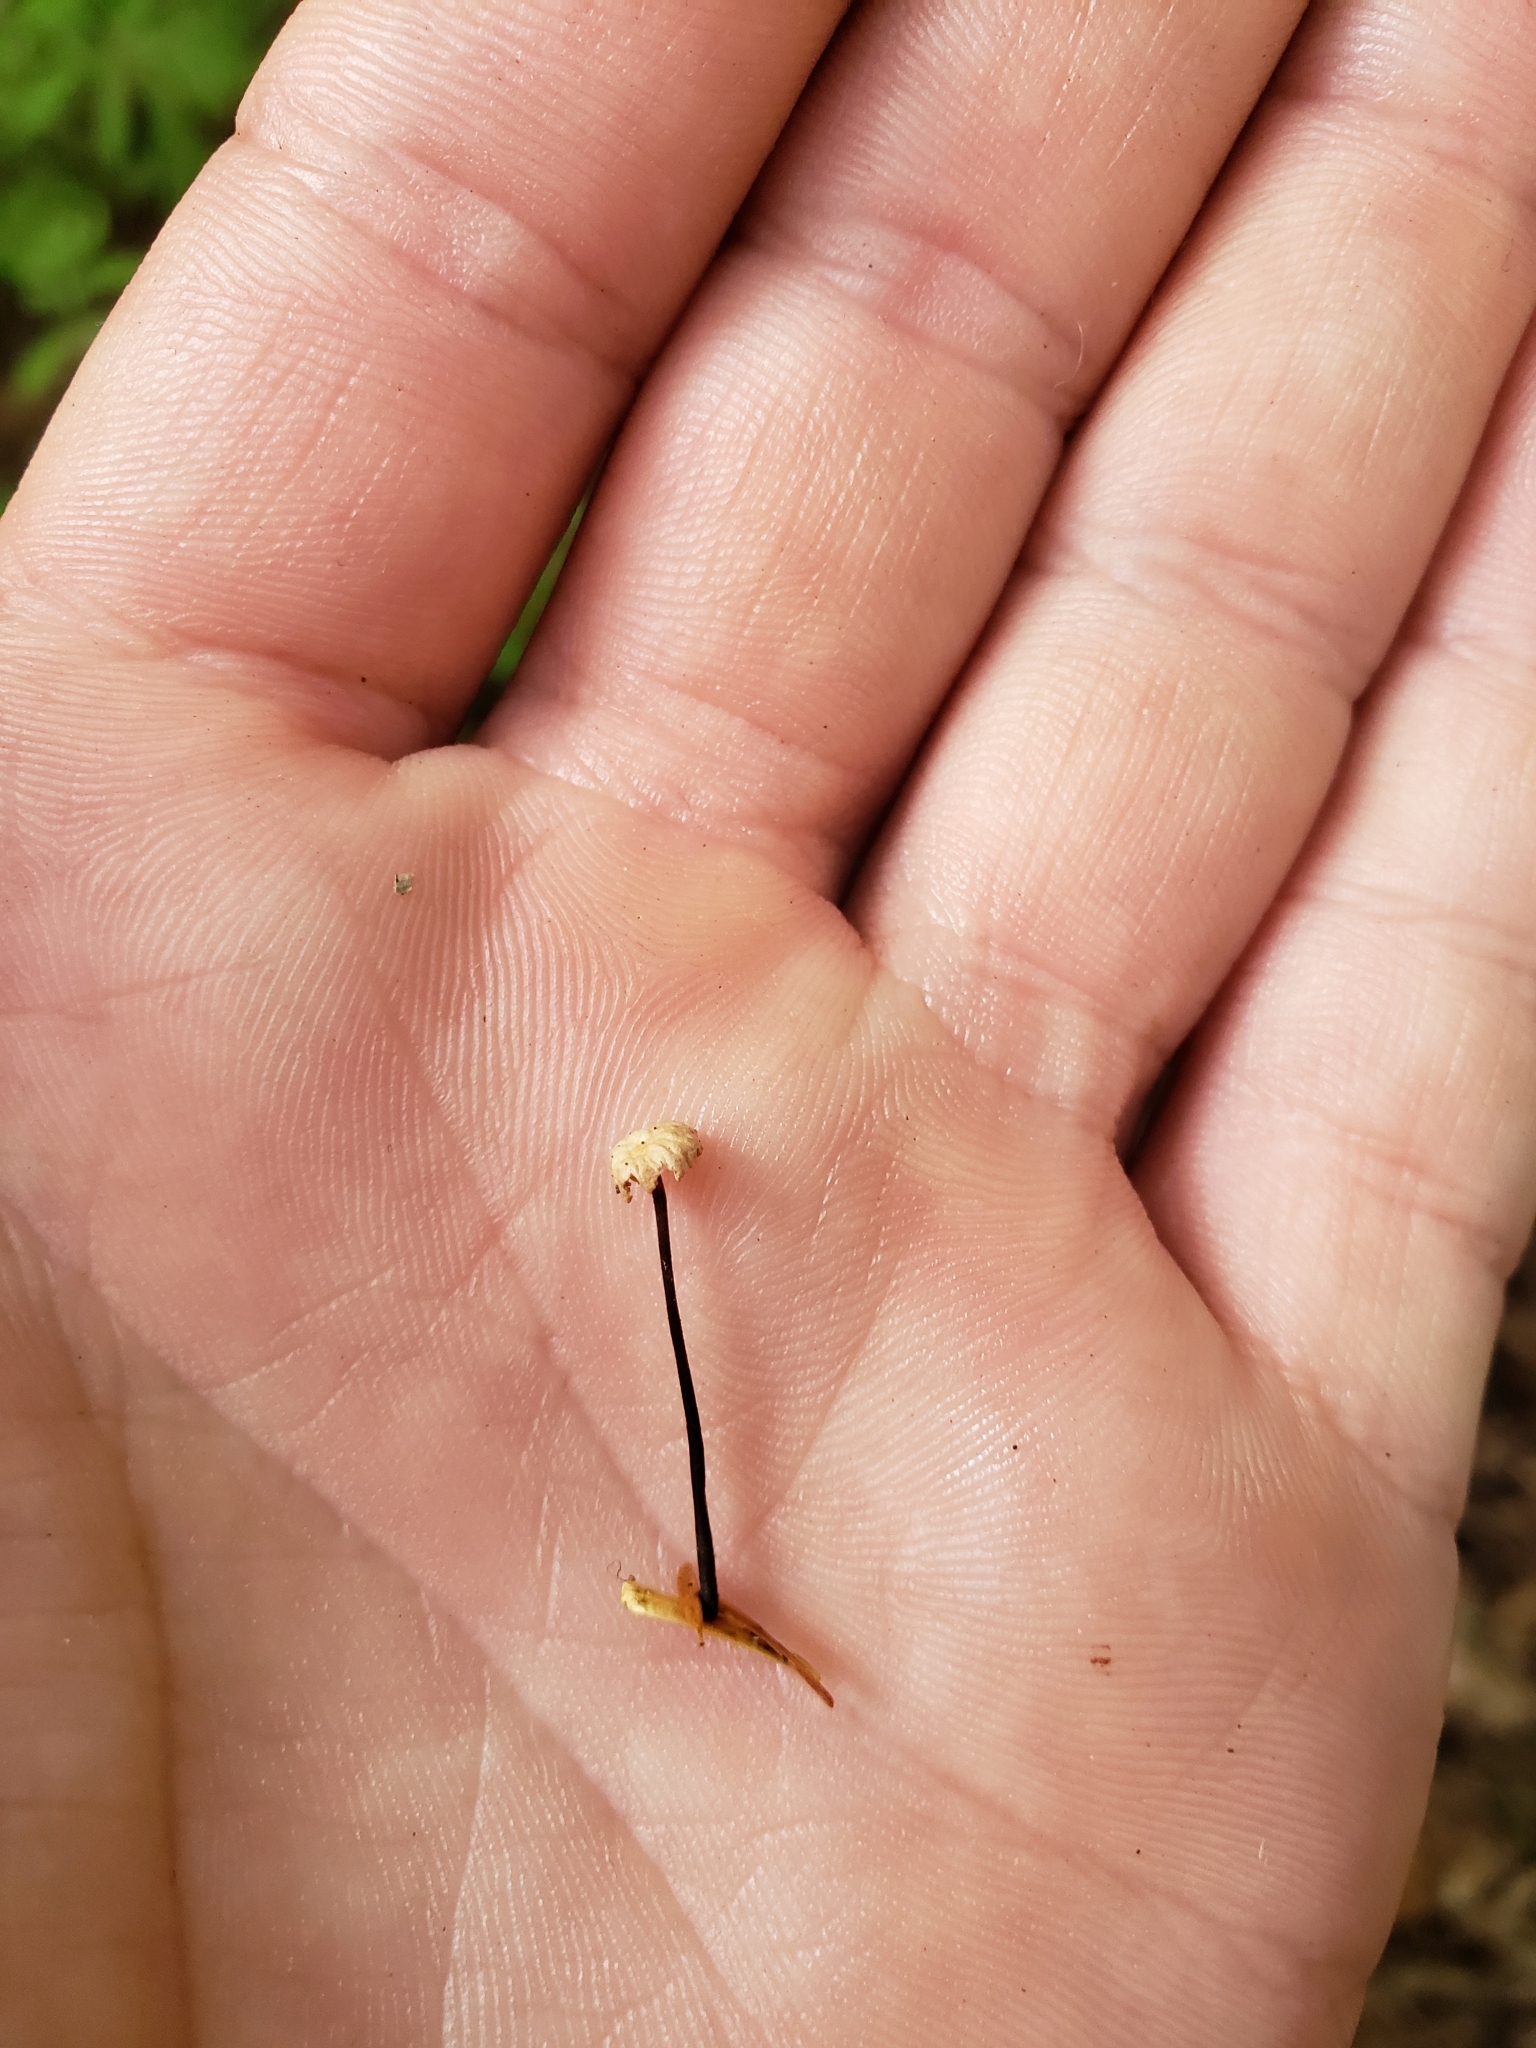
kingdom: Fungi
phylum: Basidiomycota
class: Agaricomycetes
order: Agaricales
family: Marasmiaceae
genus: Marasmius
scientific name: Marasmius rotula
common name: Collared parachute
